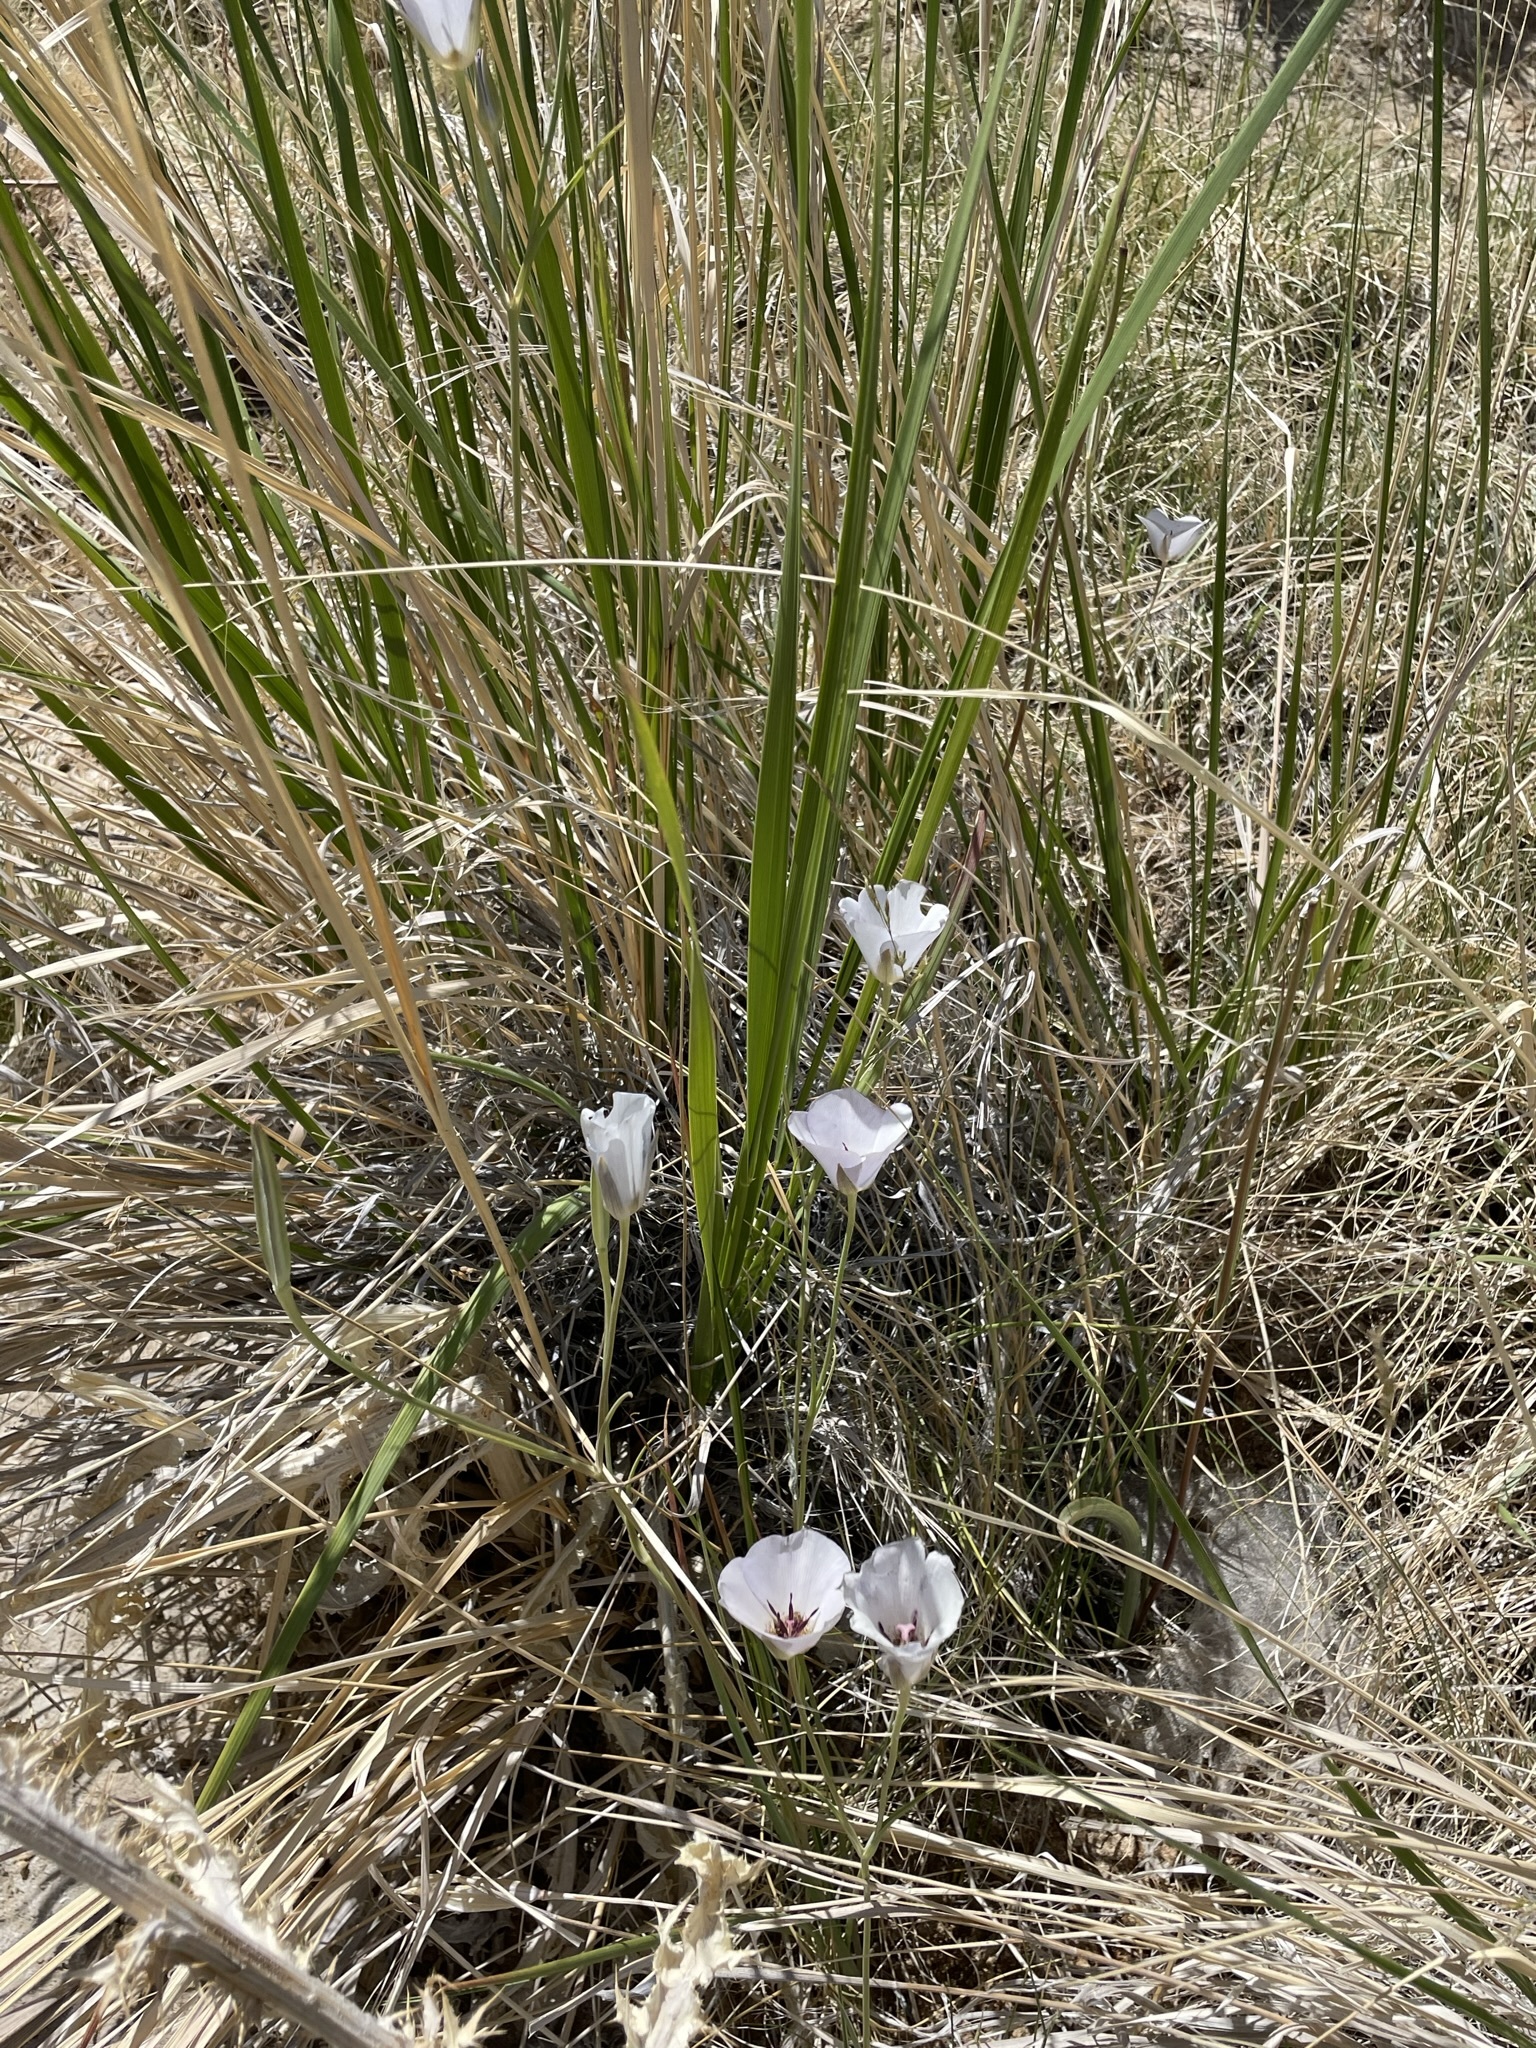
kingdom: Plantae
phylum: Tracheophyta
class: Liliopsida
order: Liliales
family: Liliaceae
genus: Calochortus
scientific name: Calochortus excavatus
